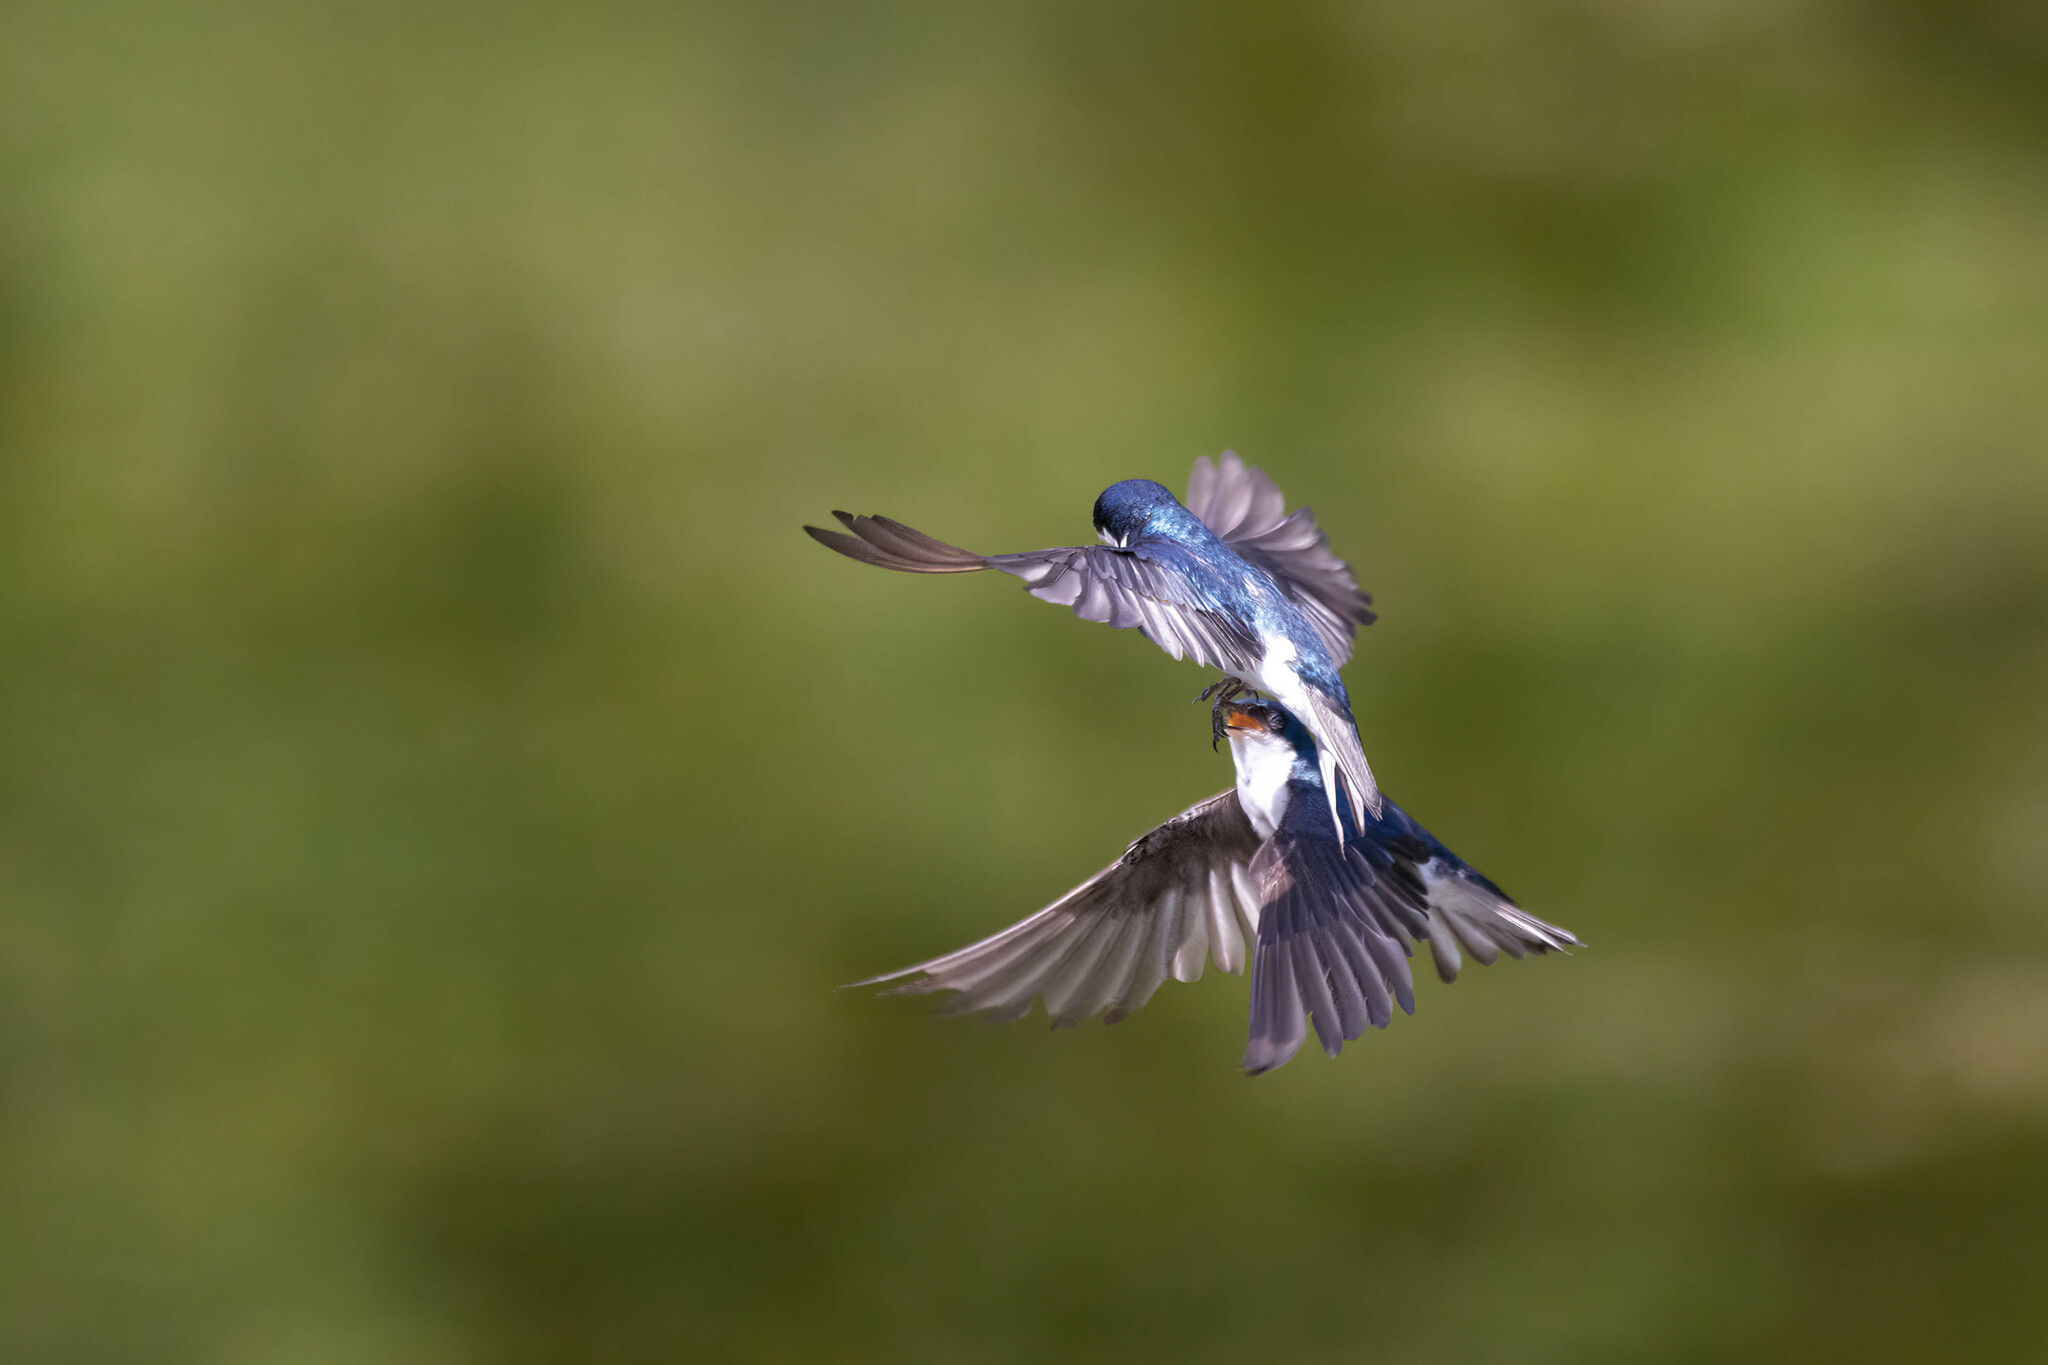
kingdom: Animalia
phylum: Chordata
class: Aves
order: Passeriformes
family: Hirundinidae
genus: Tachycineta
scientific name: Tachycineta bicolor
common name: Tree swallow
